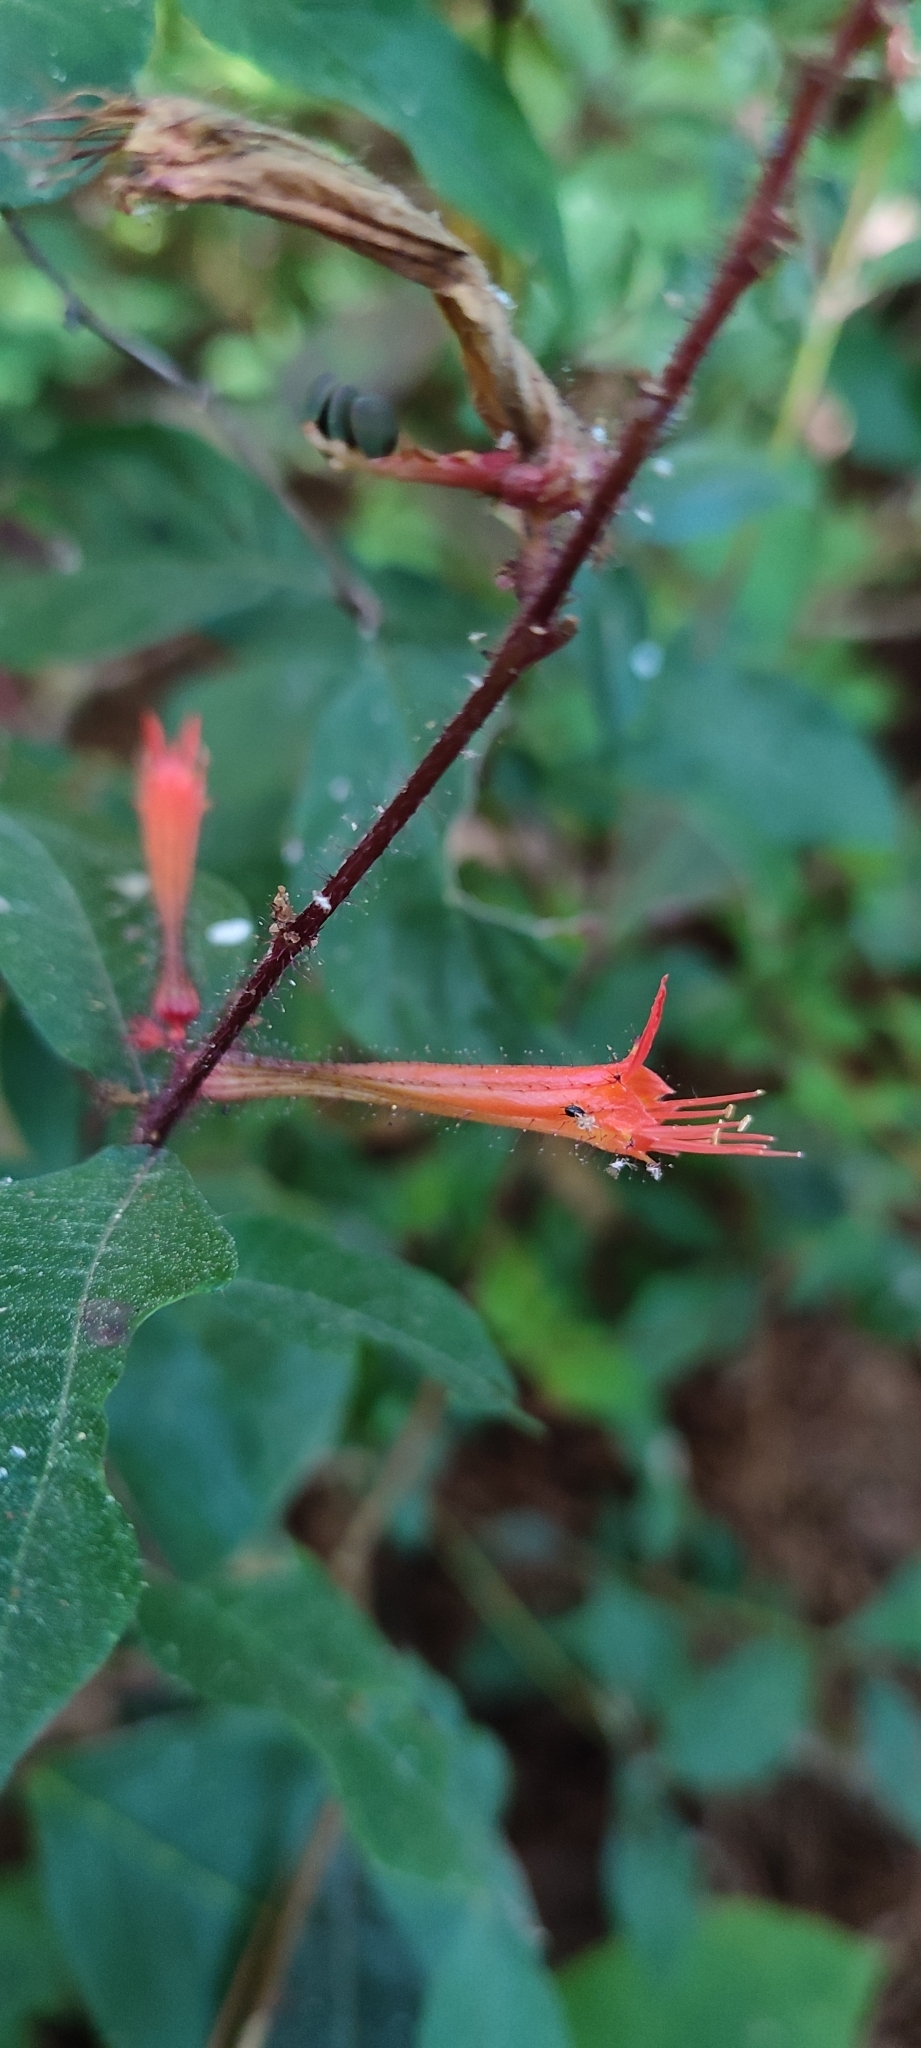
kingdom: Plantae
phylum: Tracheophyta
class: Magnoliopsida
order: Myrtales
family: Lythraceae
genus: Cuphea
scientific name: Cuphea appendiculata
